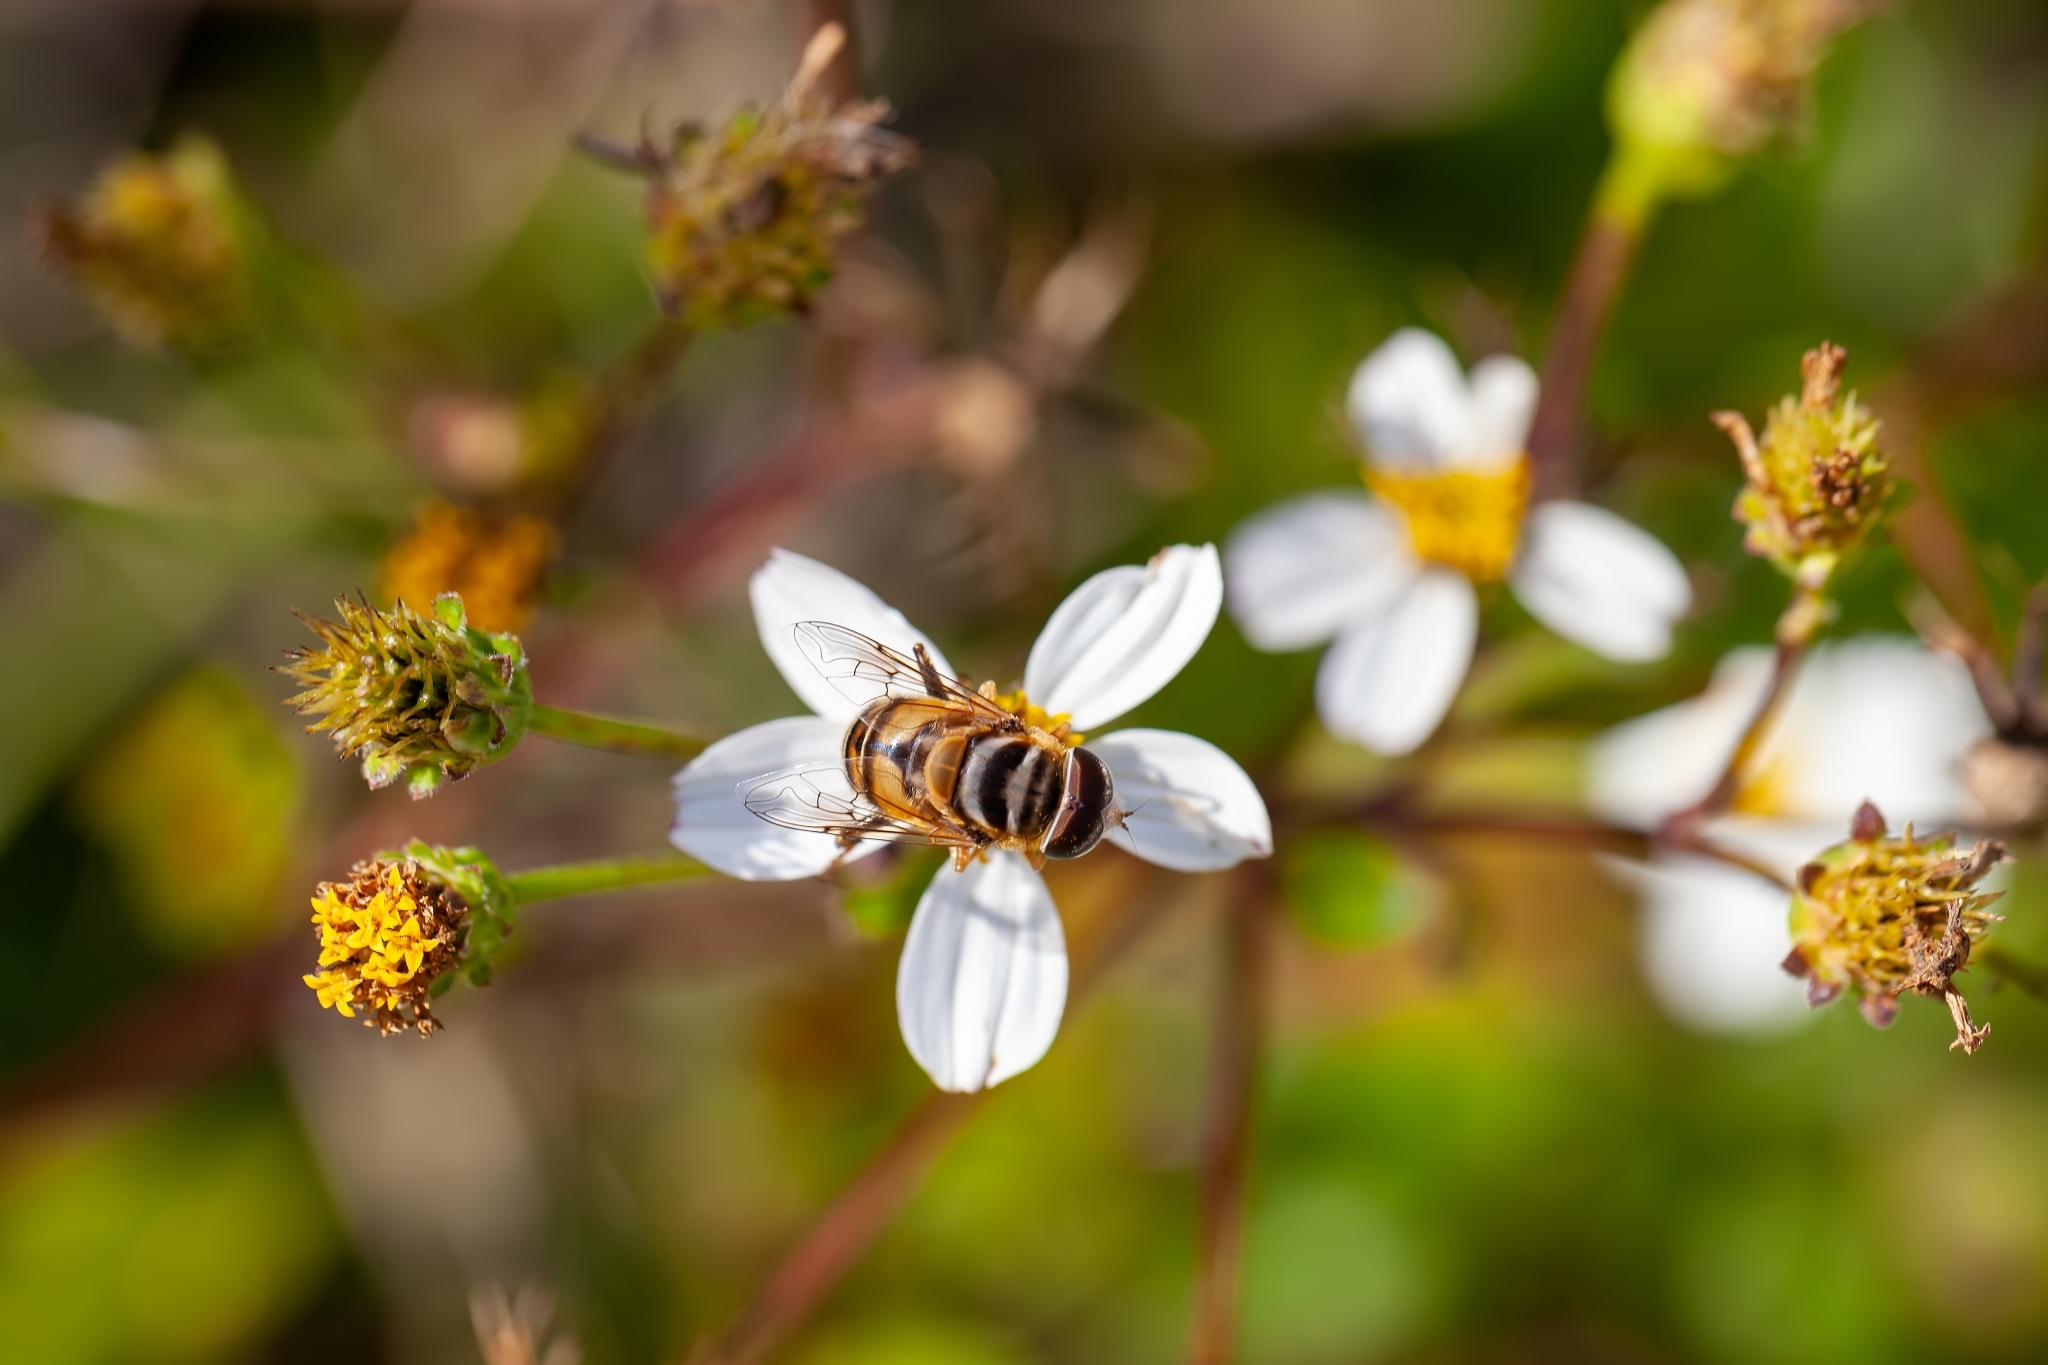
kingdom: Animalia
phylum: Arthropoda
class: Insecta
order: Diptera
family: Syrphidae
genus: Palpada
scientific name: Palpada vinetorum
